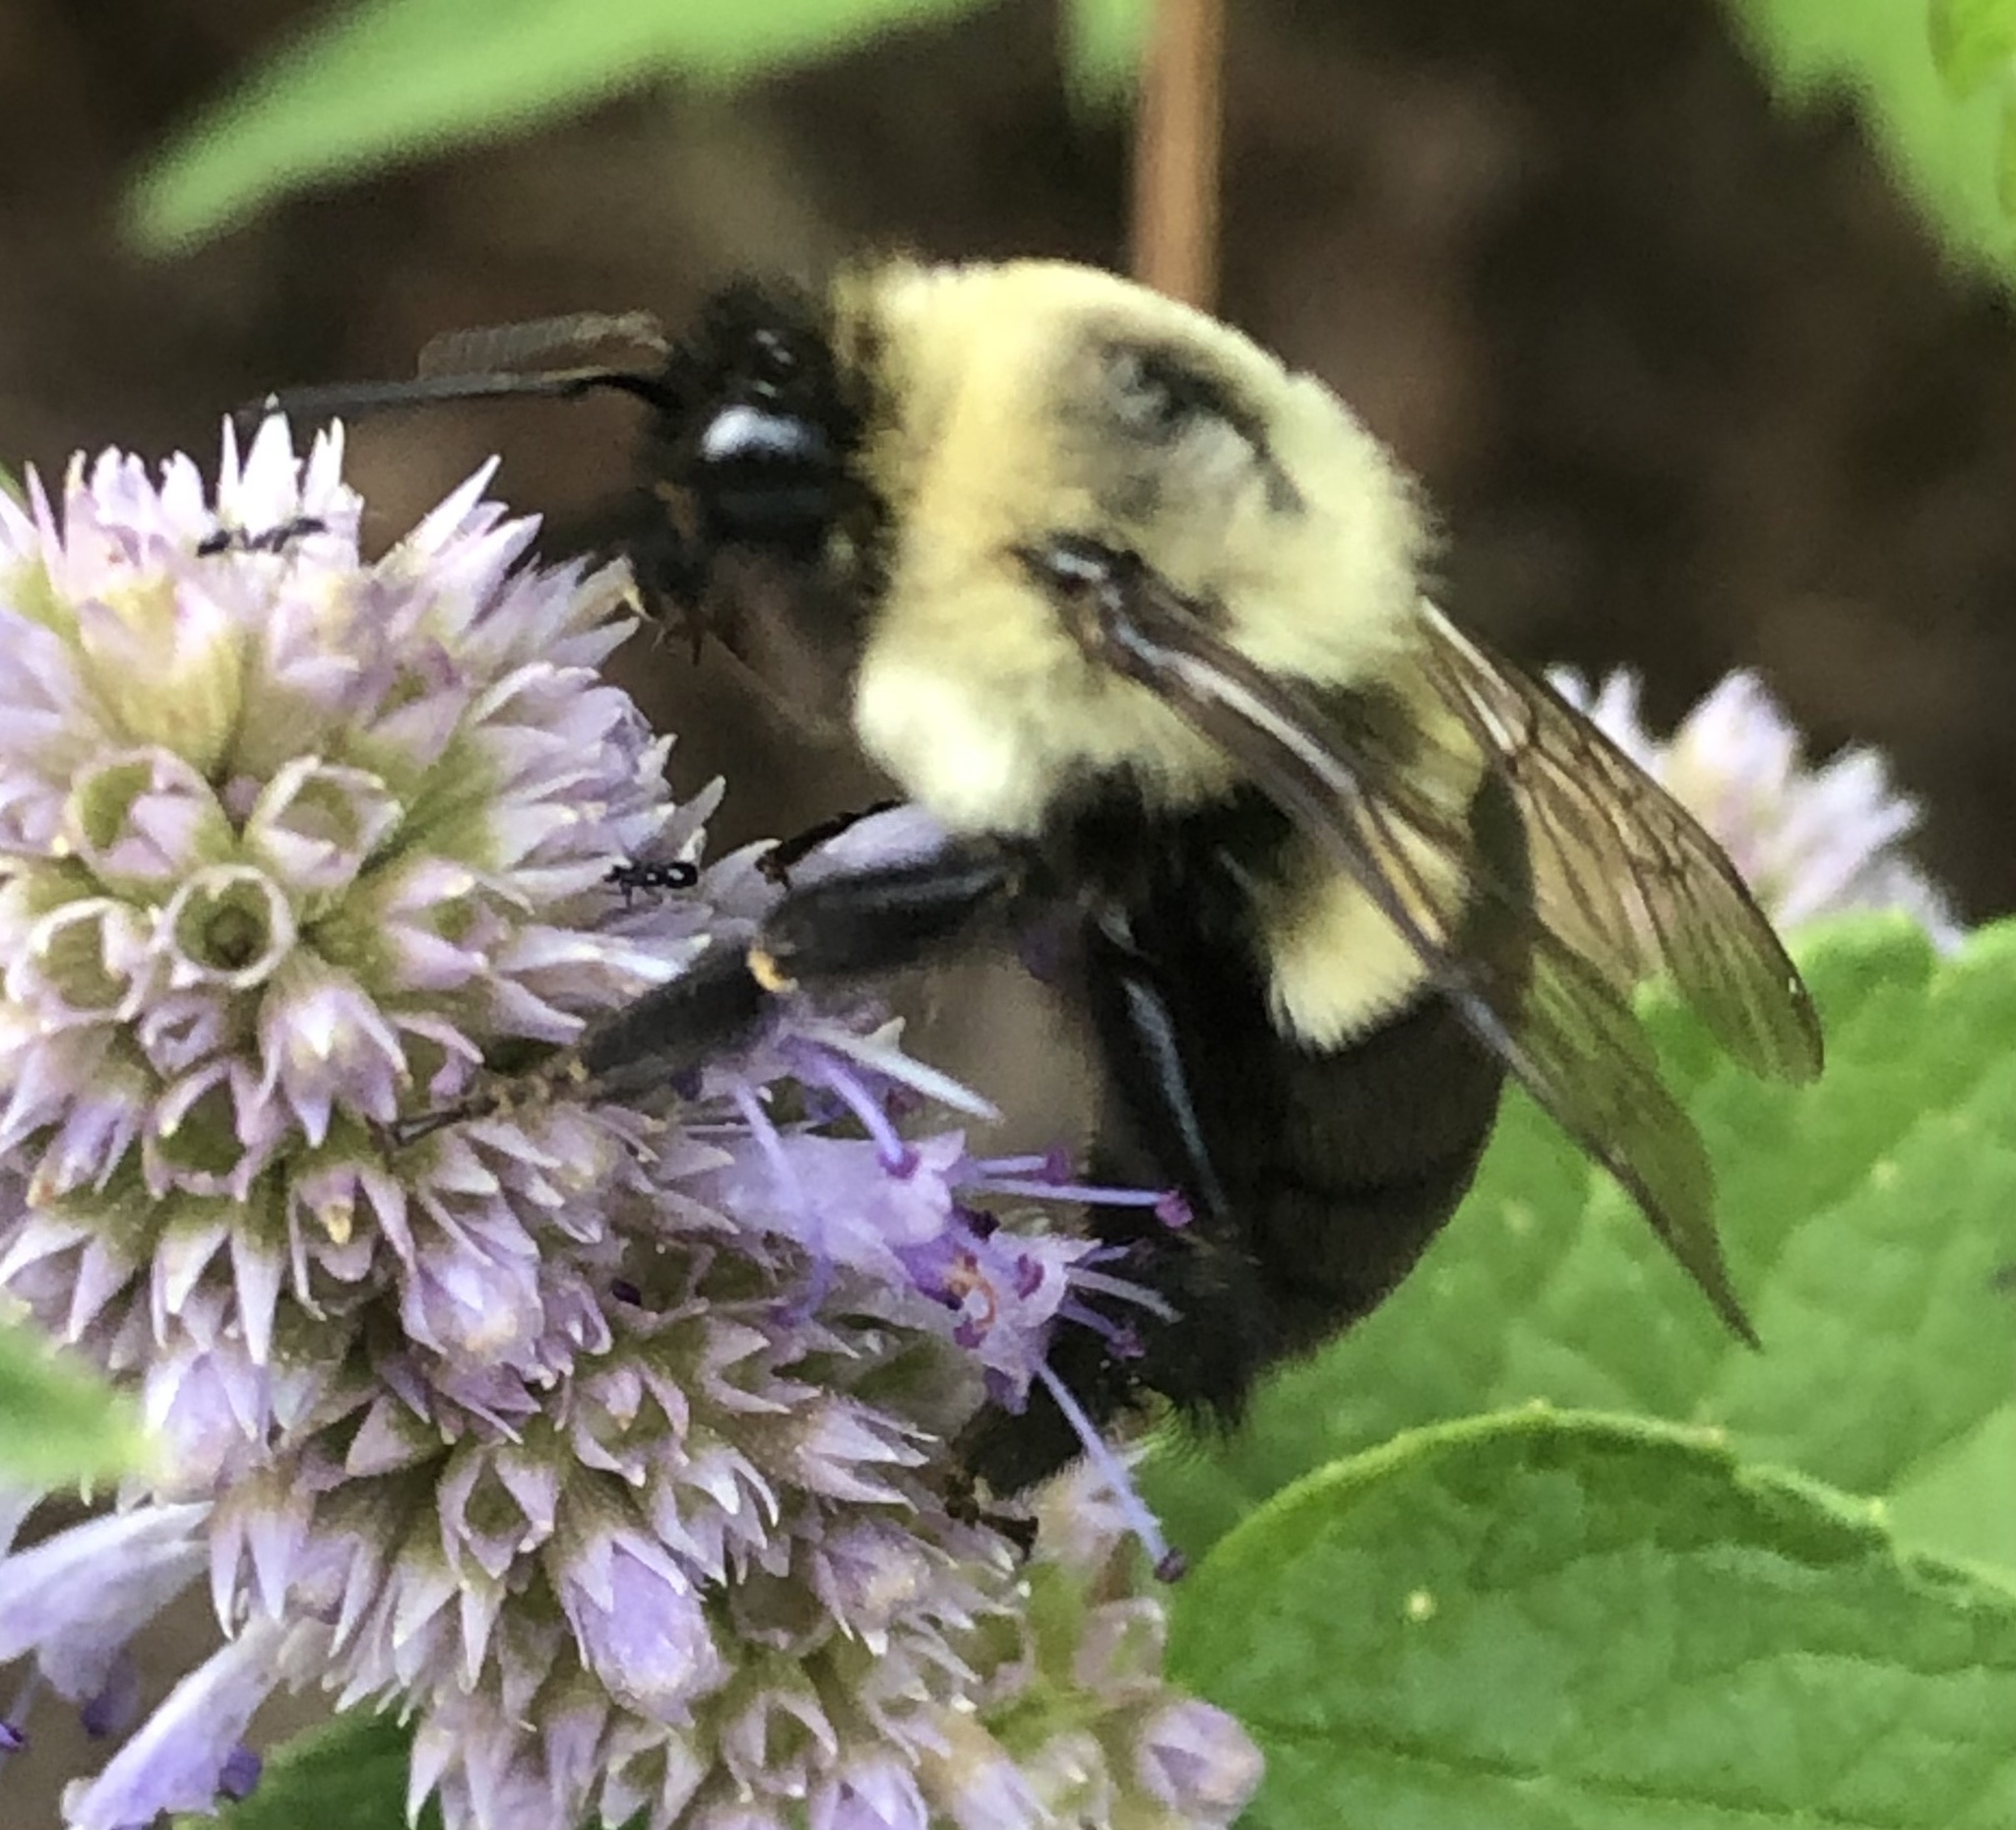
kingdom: Animalia
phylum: Arthropoda
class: Insecta
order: Hymenoptera
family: Apidae
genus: Bombus
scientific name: Bombus impatiens
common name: Common eastern bumble bee
